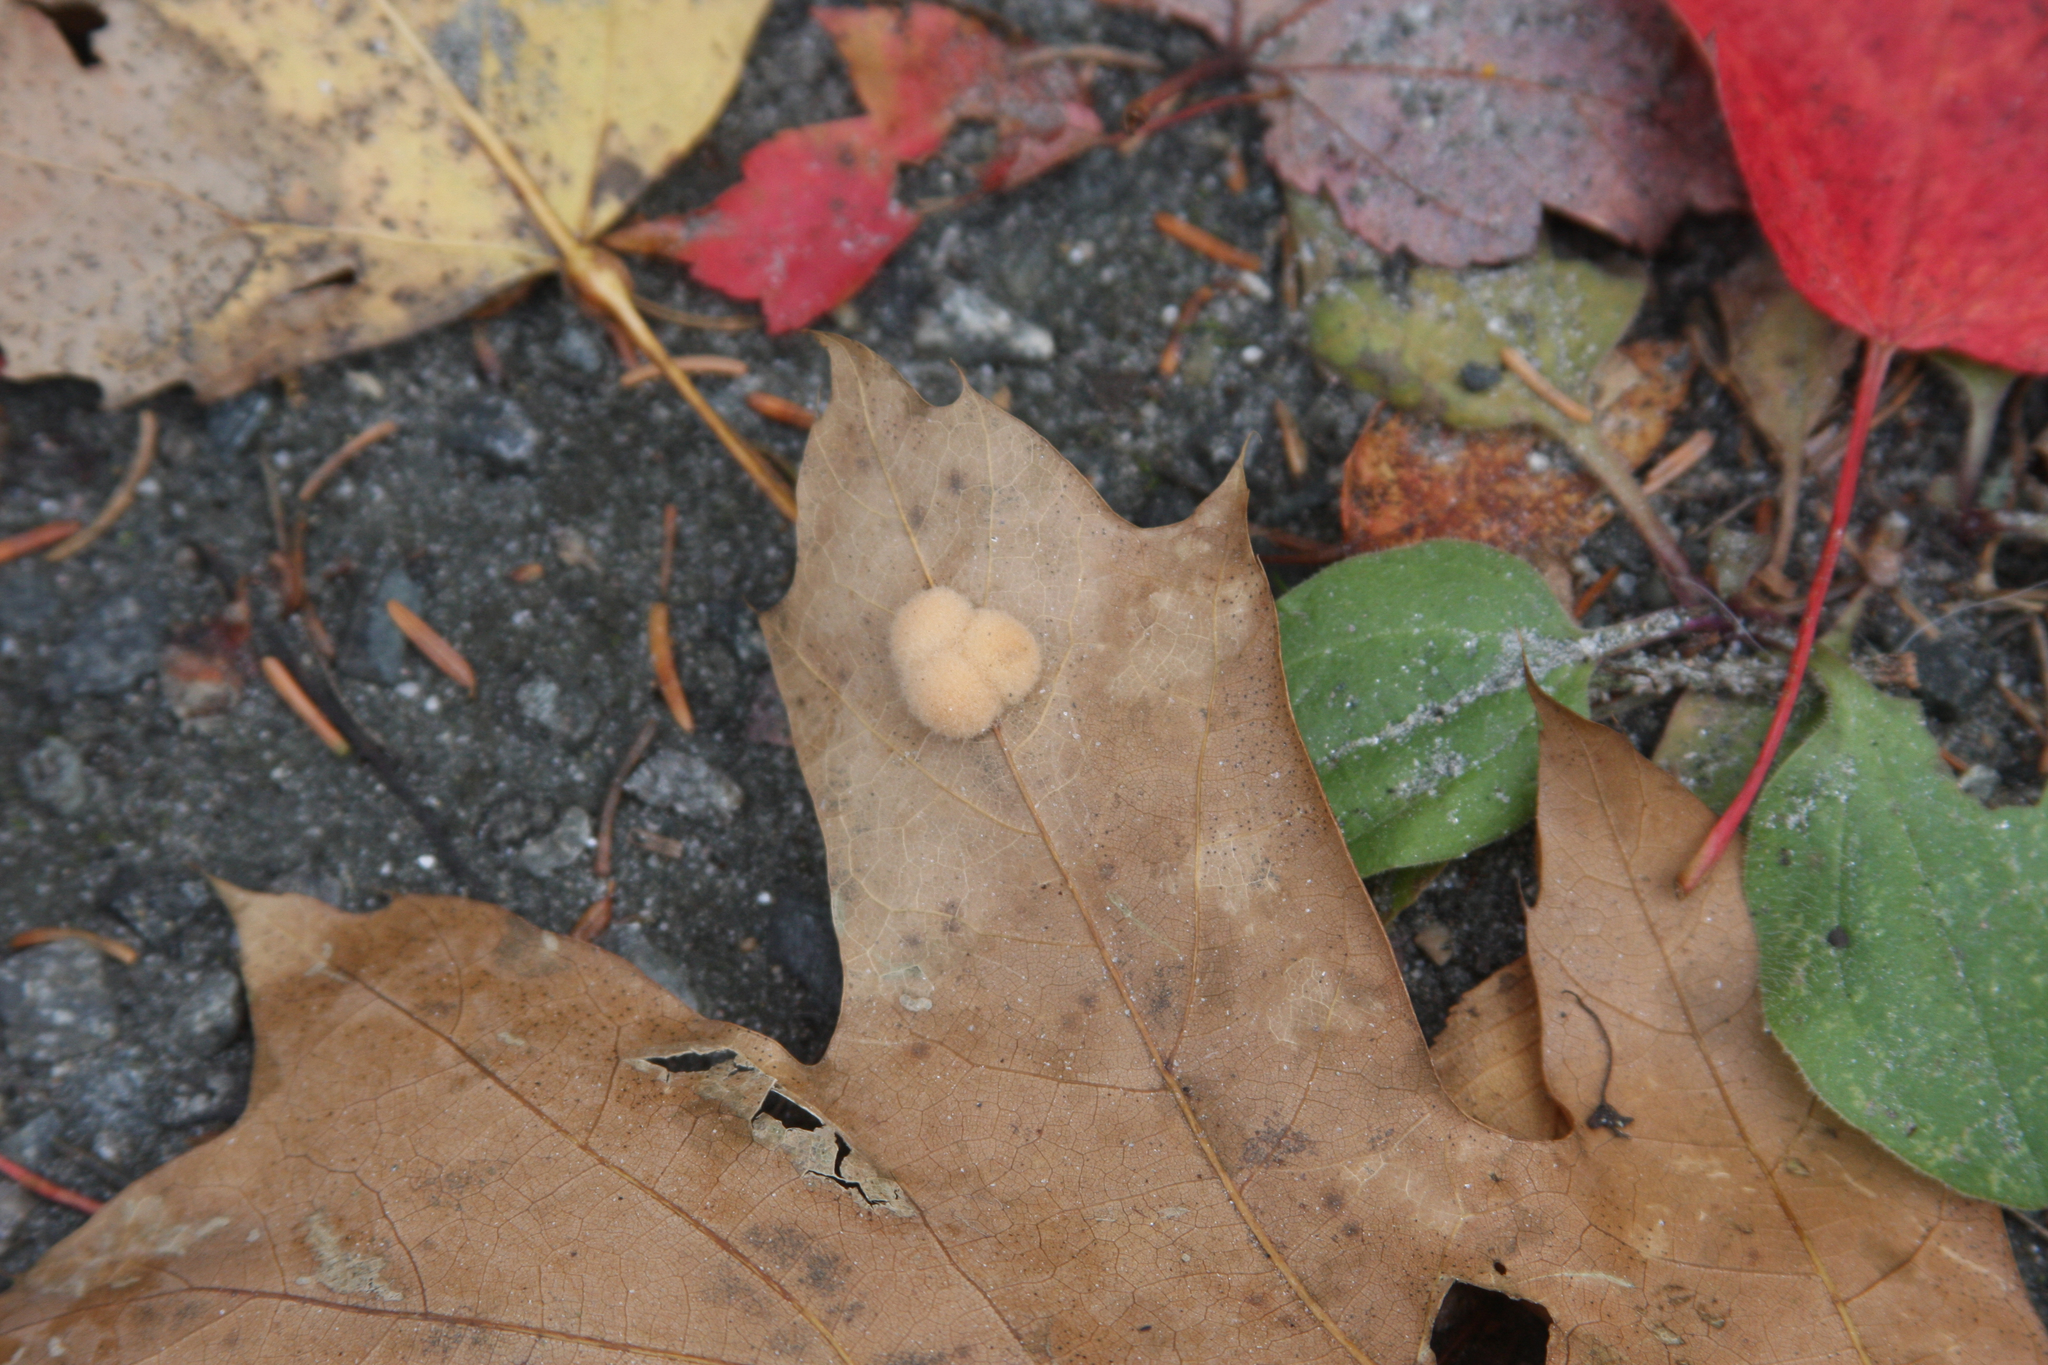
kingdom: Animalia
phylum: Arthropoda
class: Insecta
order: Hymenoptera
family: Cynipidae
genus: Callirhytis
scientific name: Callirhytis
